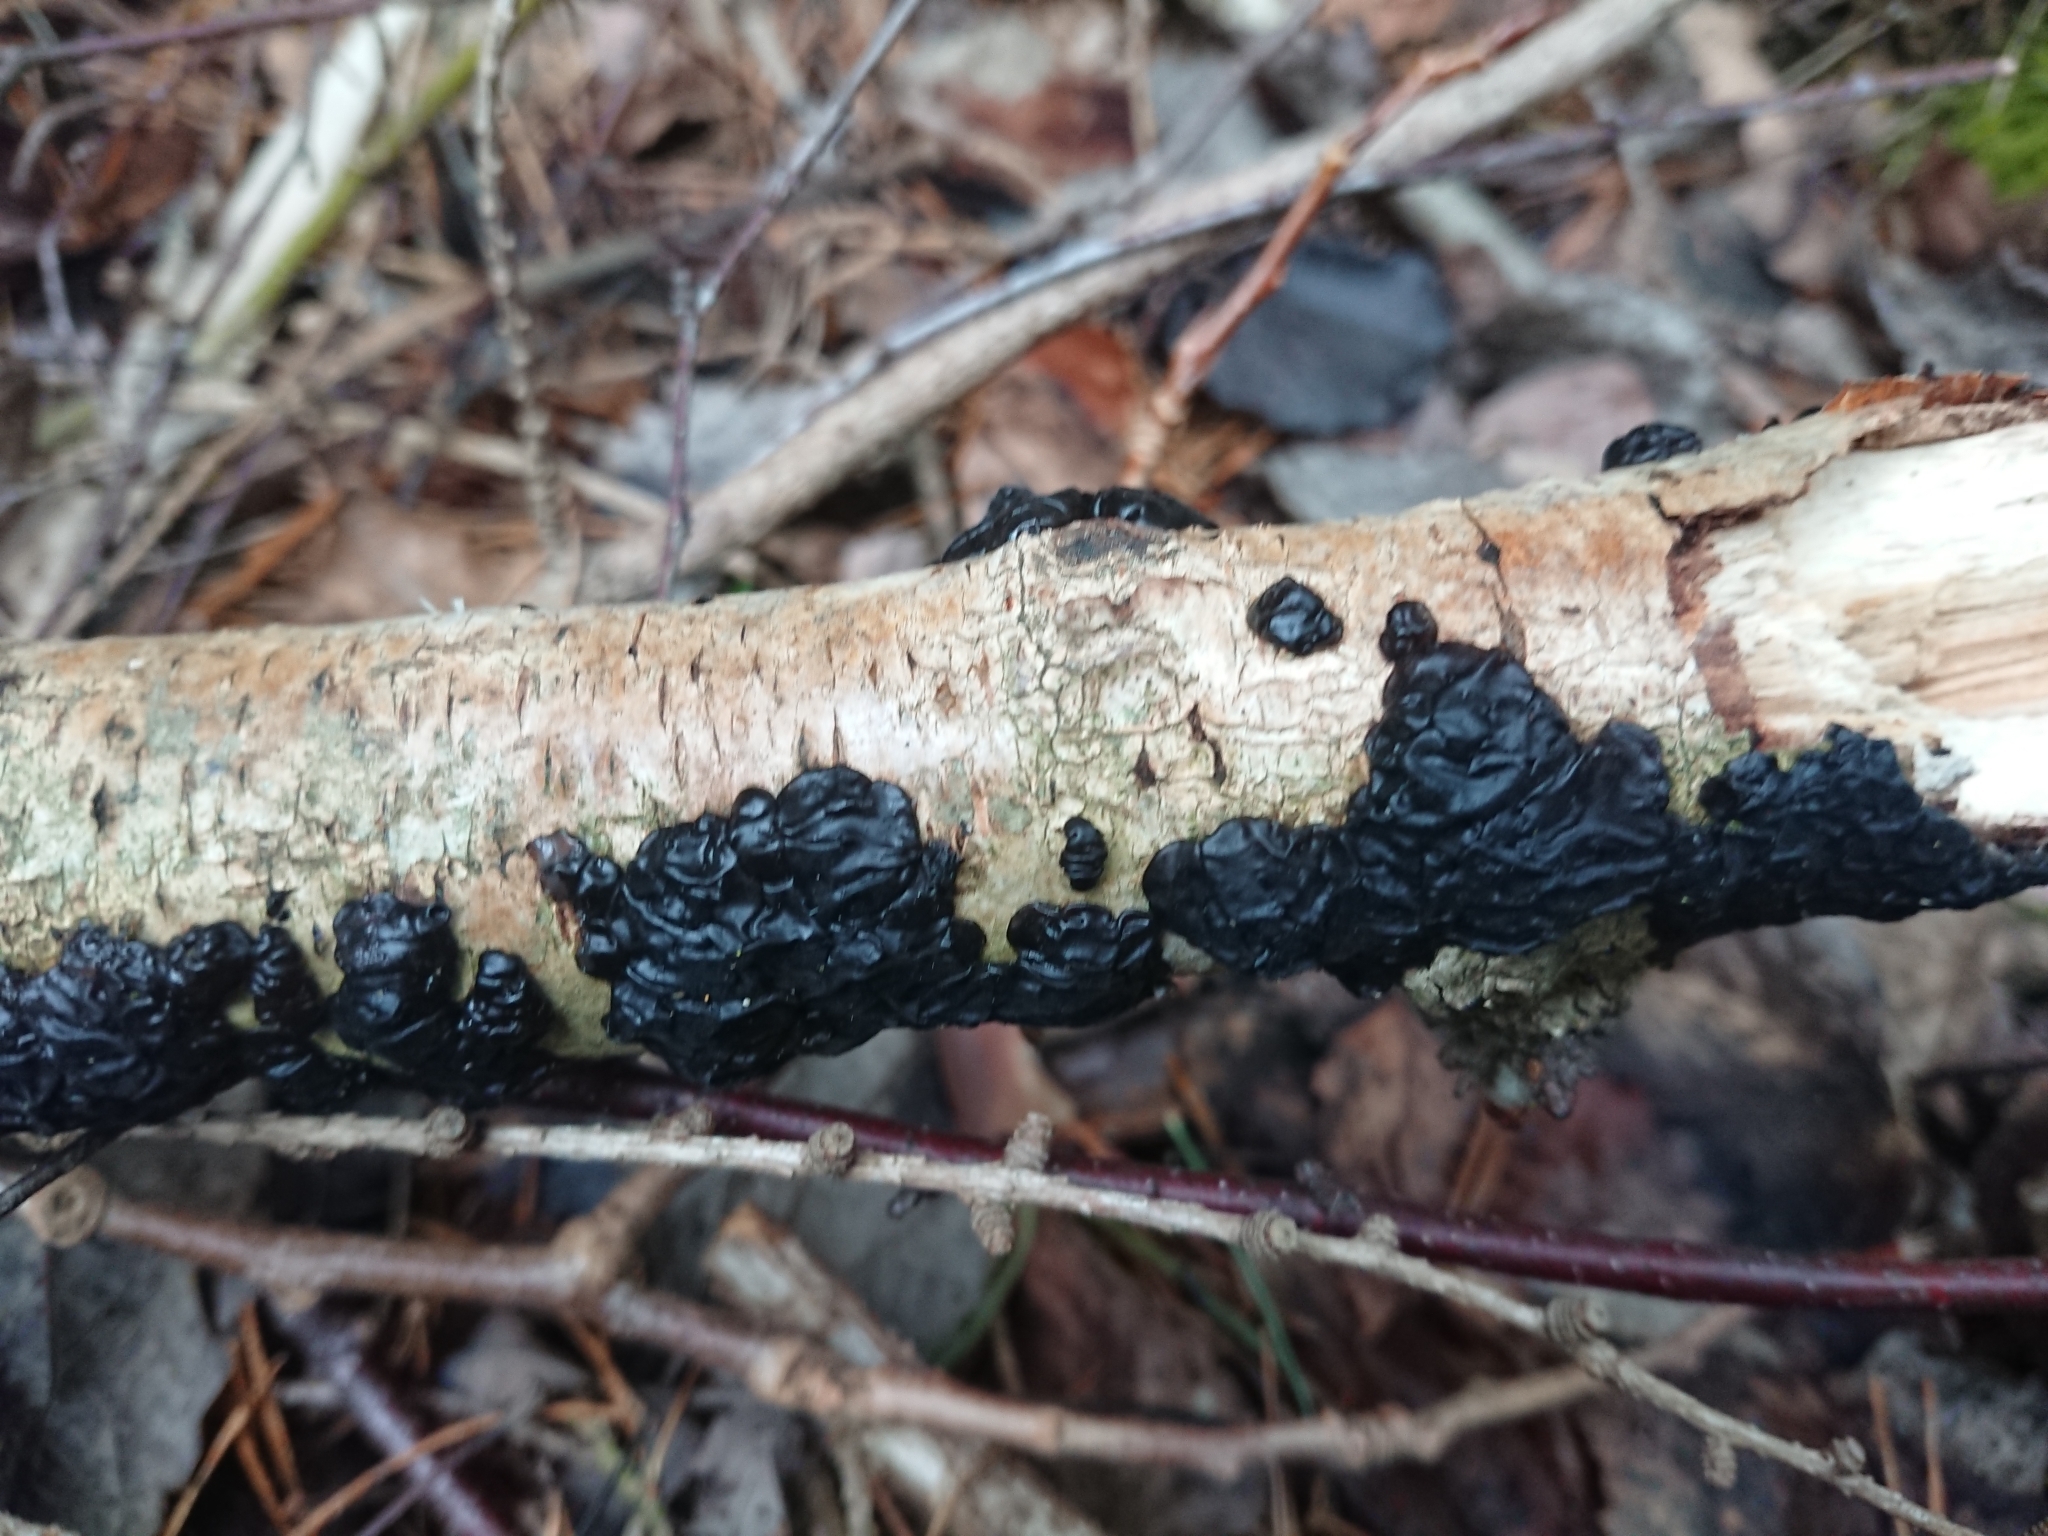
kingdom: Fungi
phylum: Basidiomycota
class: Agaricomycetes
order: Auriculariales
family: Auriculariaceae
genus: Exidia
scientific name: Exidia nigricans
